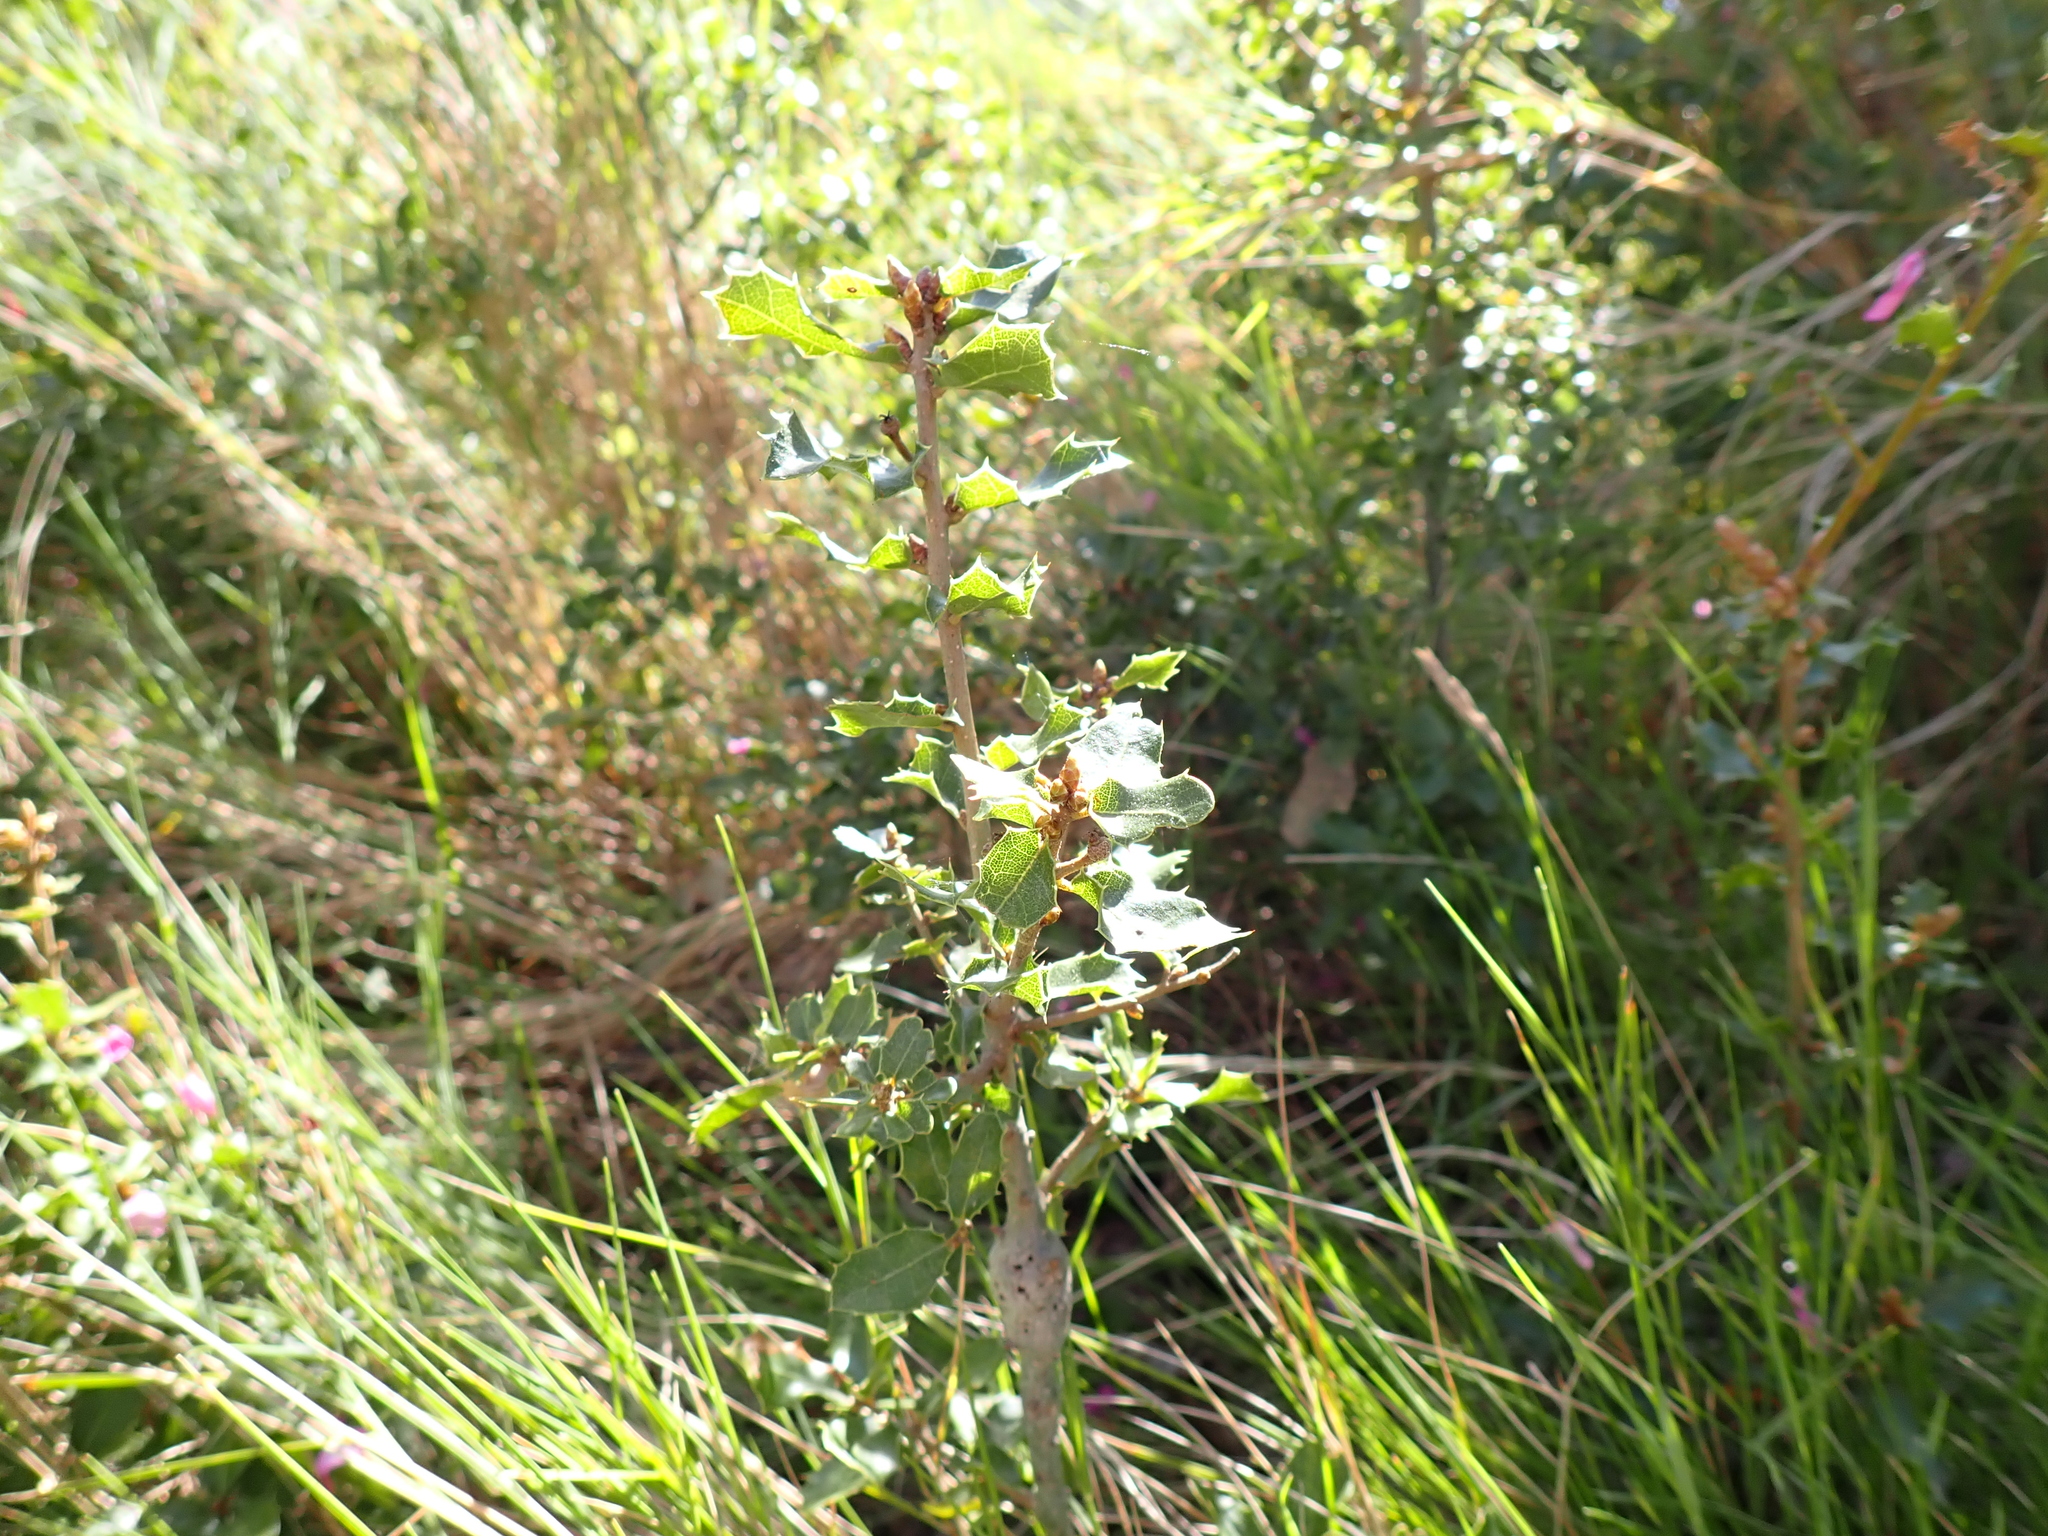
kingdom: Plantae
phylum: Tracheophyta
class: Magnoliopsida
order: Fagales
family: Fagaceae
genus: Quercus
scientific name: Quercus coccifera
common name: Kermes oak
